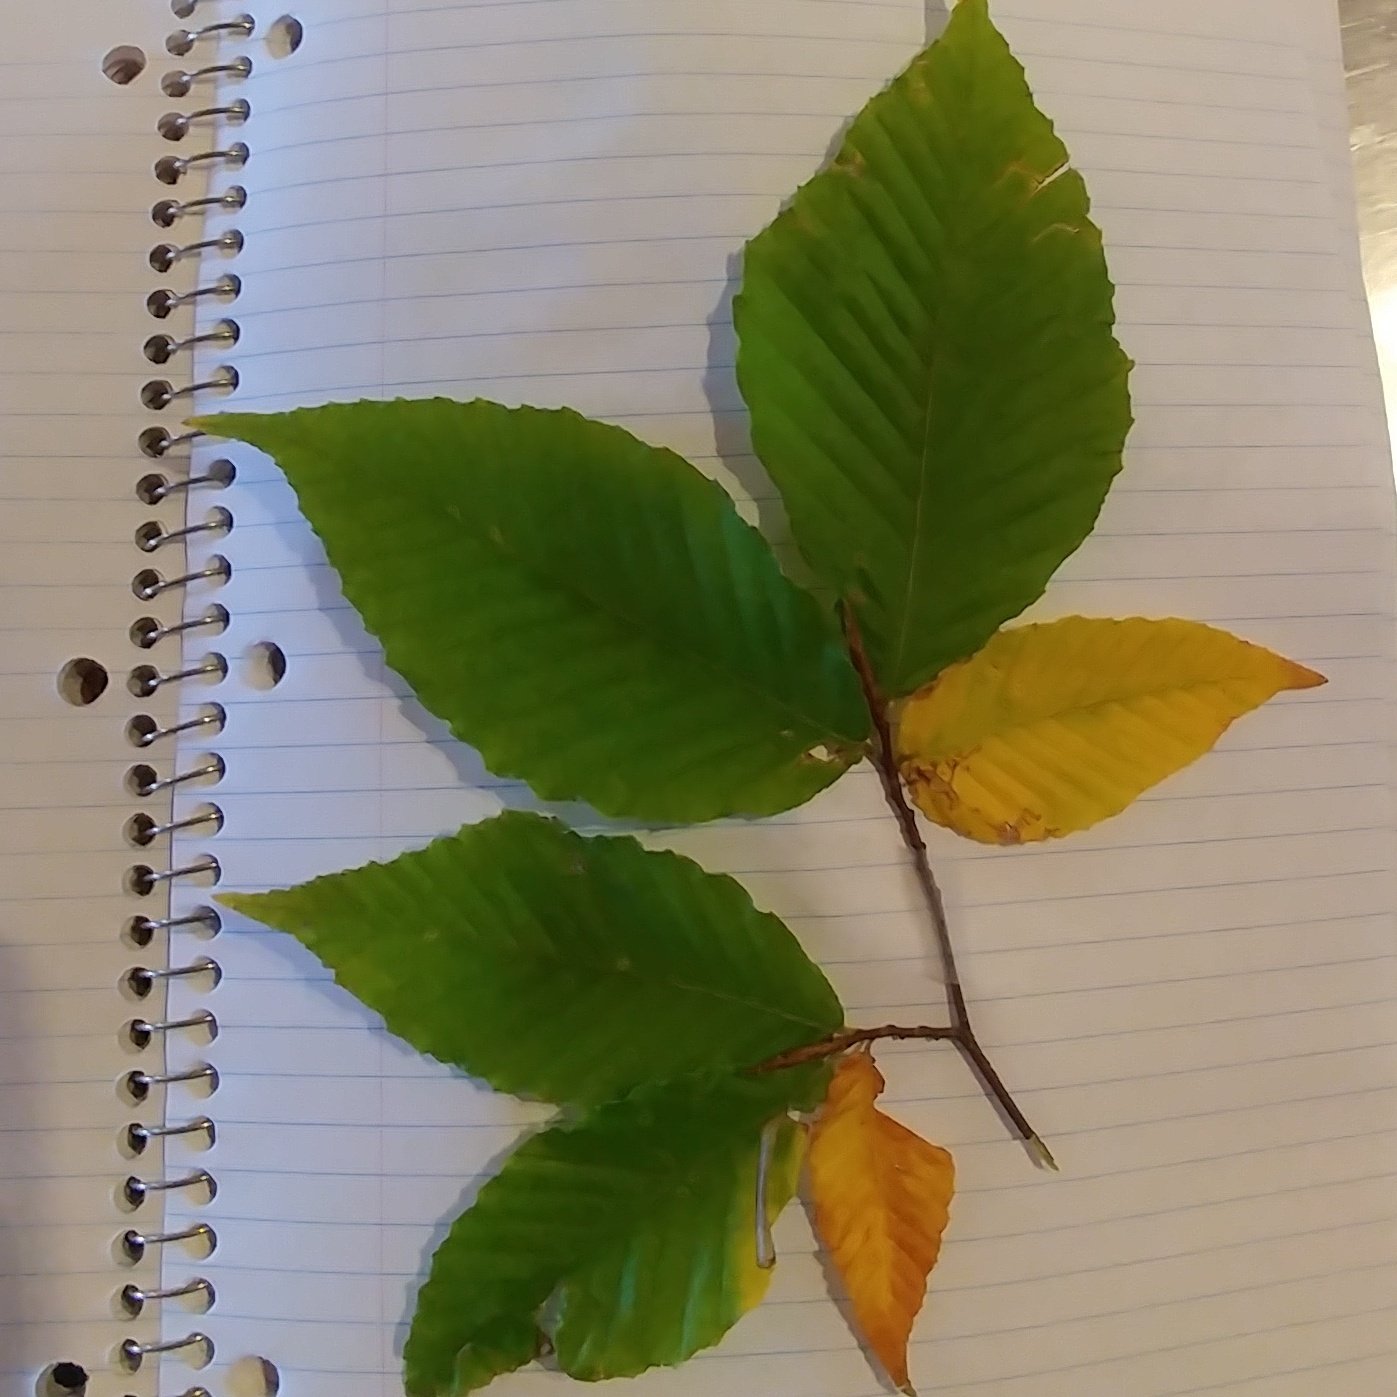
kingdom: Plantae
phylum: Tracheophyta
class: Magnoliopsida
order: Fagales
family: Fagaceae
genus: Fagus
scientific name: Fagus grandifolia
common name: American beech
